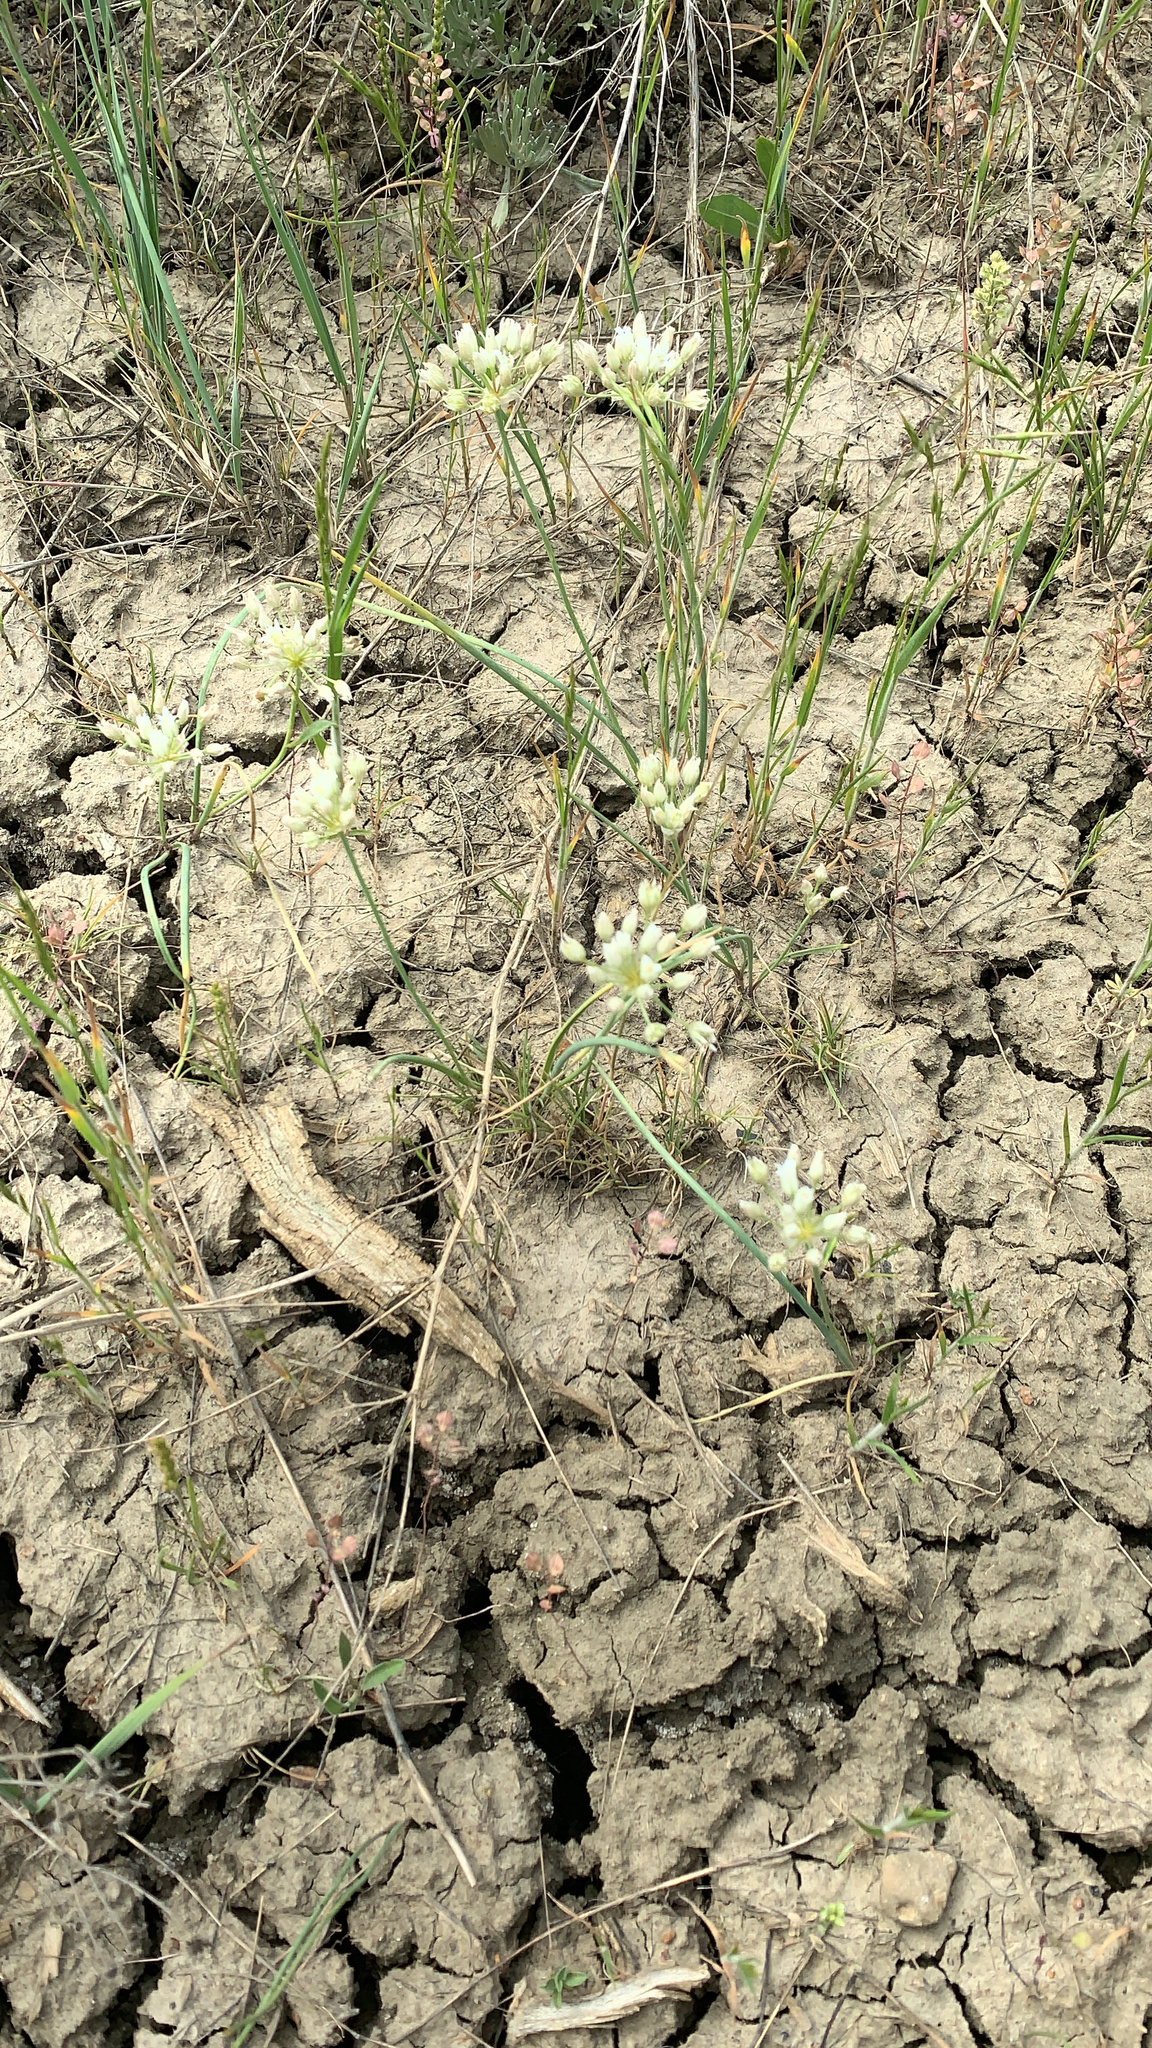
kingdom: Plantae
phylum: Tracheophyta
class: Liliopsida
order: Asparagales
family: Amaryllidaceae
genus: Allium
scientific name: Allium textile
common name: Prairie onion
